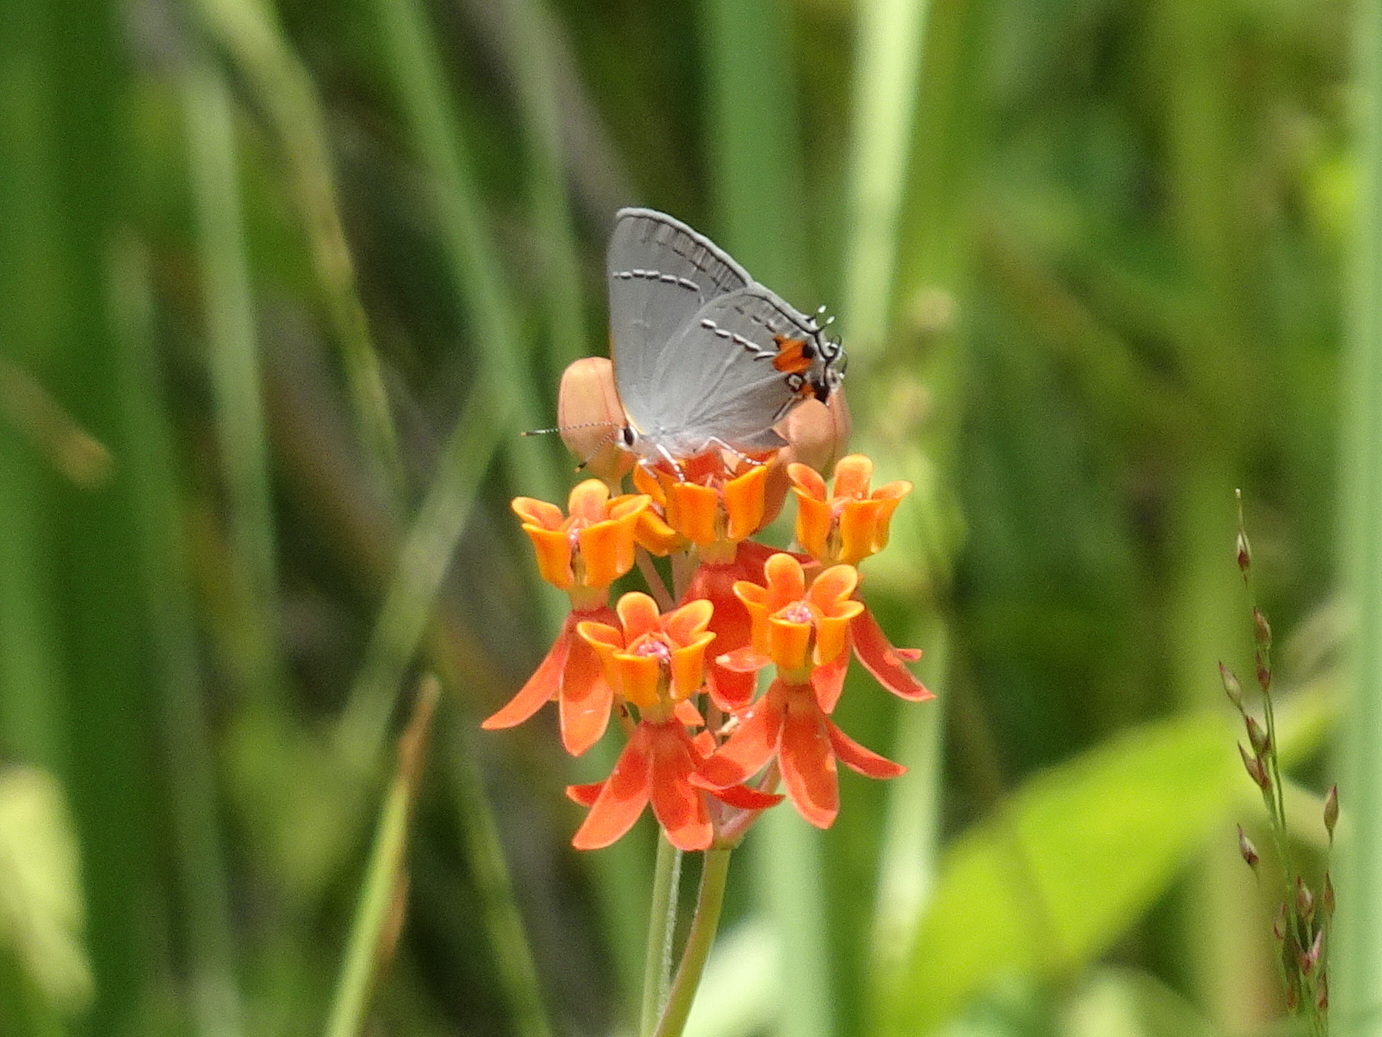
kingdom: Animalia
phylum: Arthropoda
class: Insecta
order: Lepidoptera
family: Lycaenidae
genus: Strymon
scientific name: Strymon melinus
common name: Gray hairstreak
